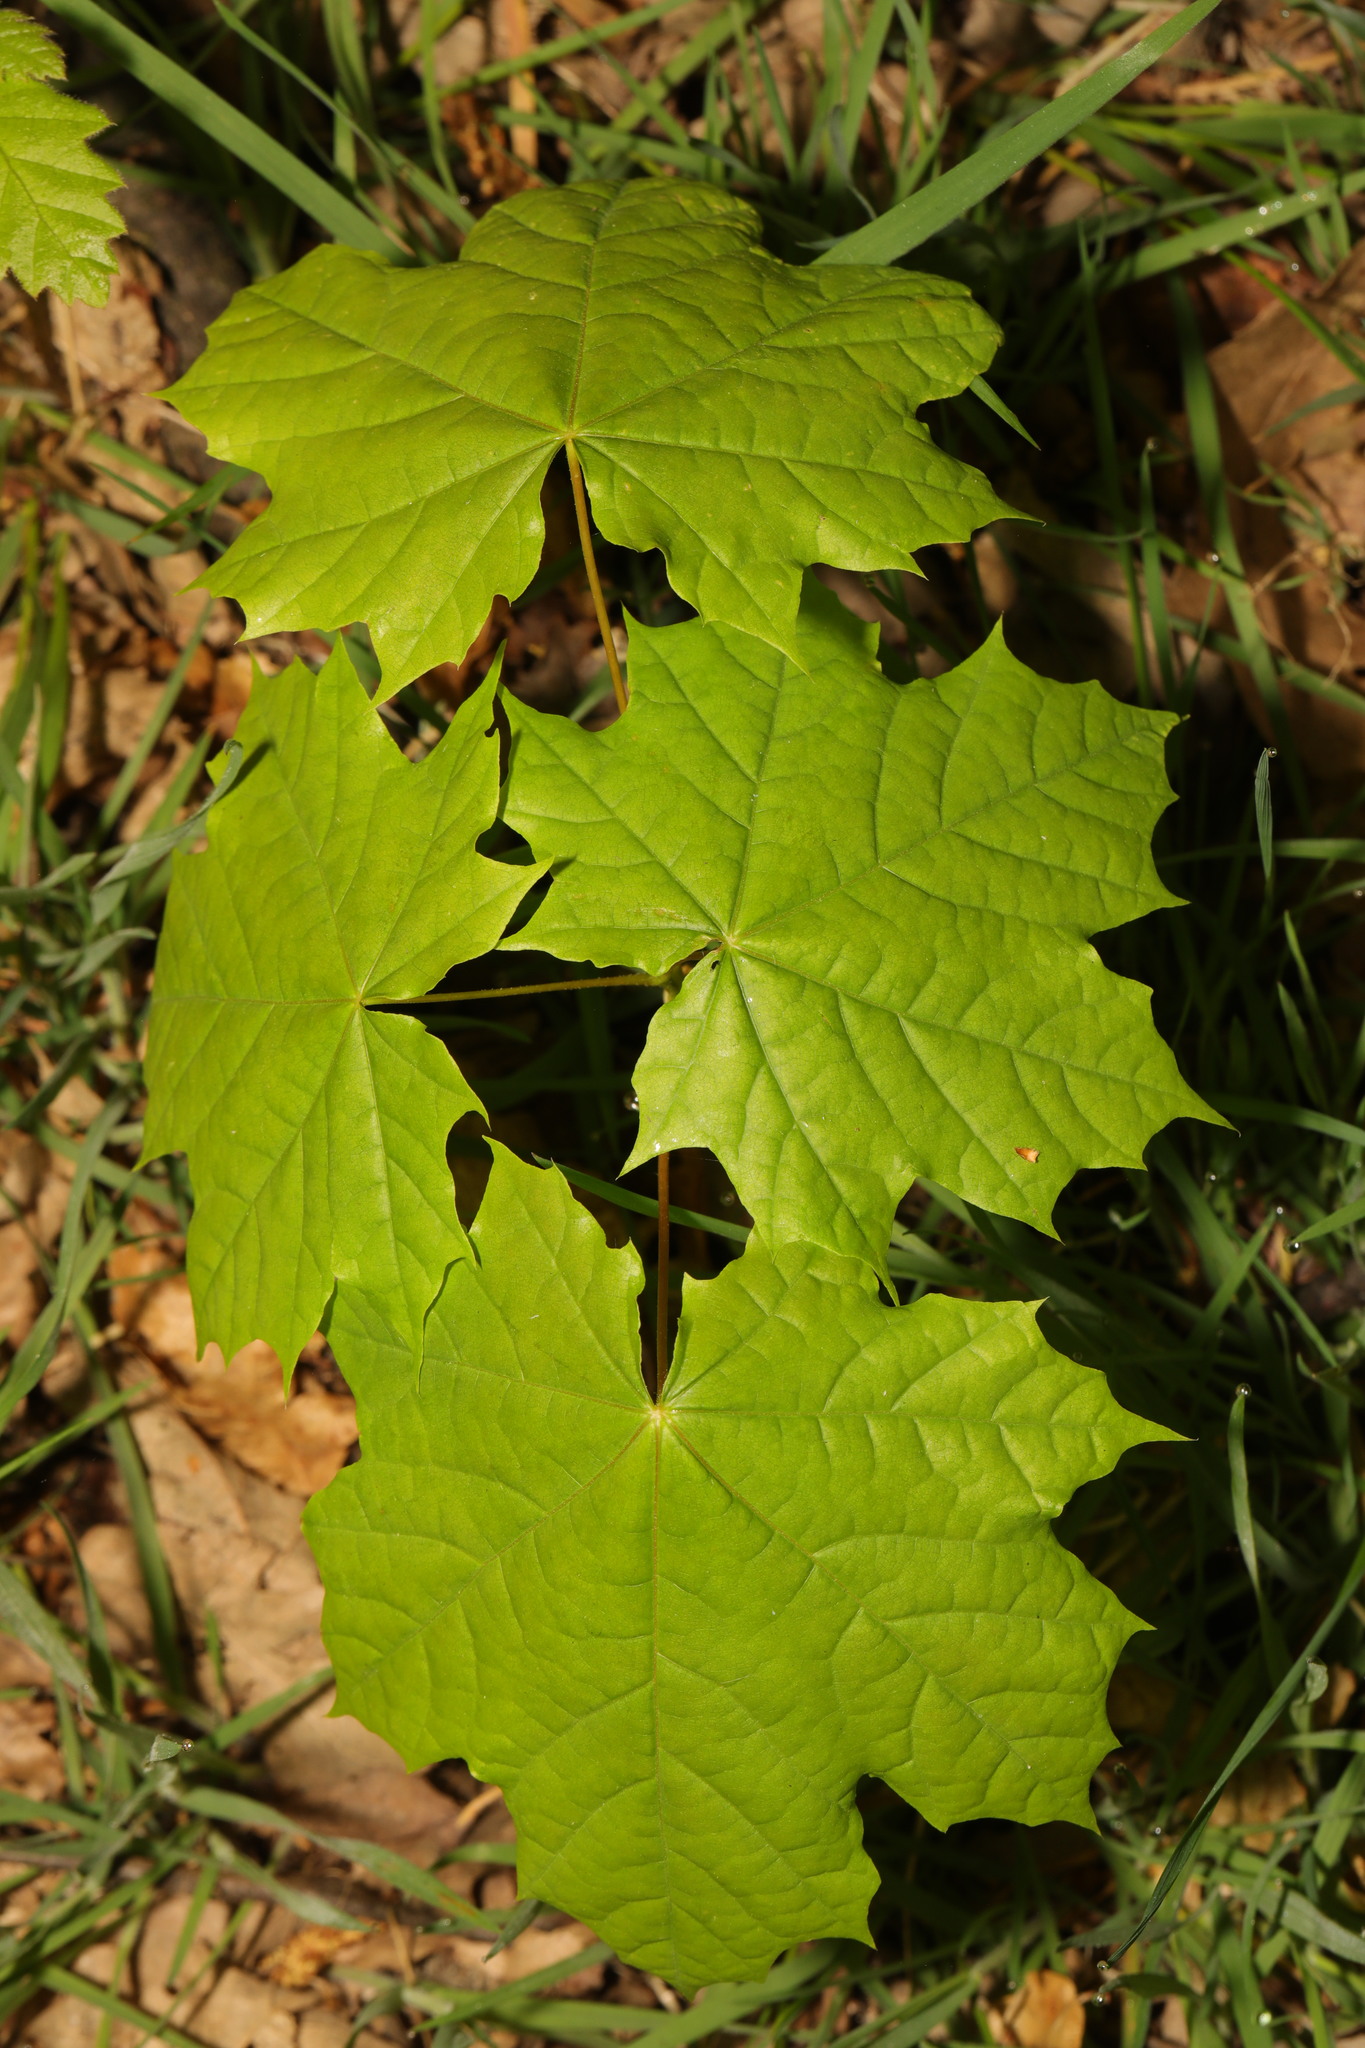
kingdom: Plantae
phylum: Tracheophyta
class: Magnoliopsida
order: Sapindales
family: Sapindaceae
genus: Acer
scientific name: Acer platanoides
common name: Norway maple
